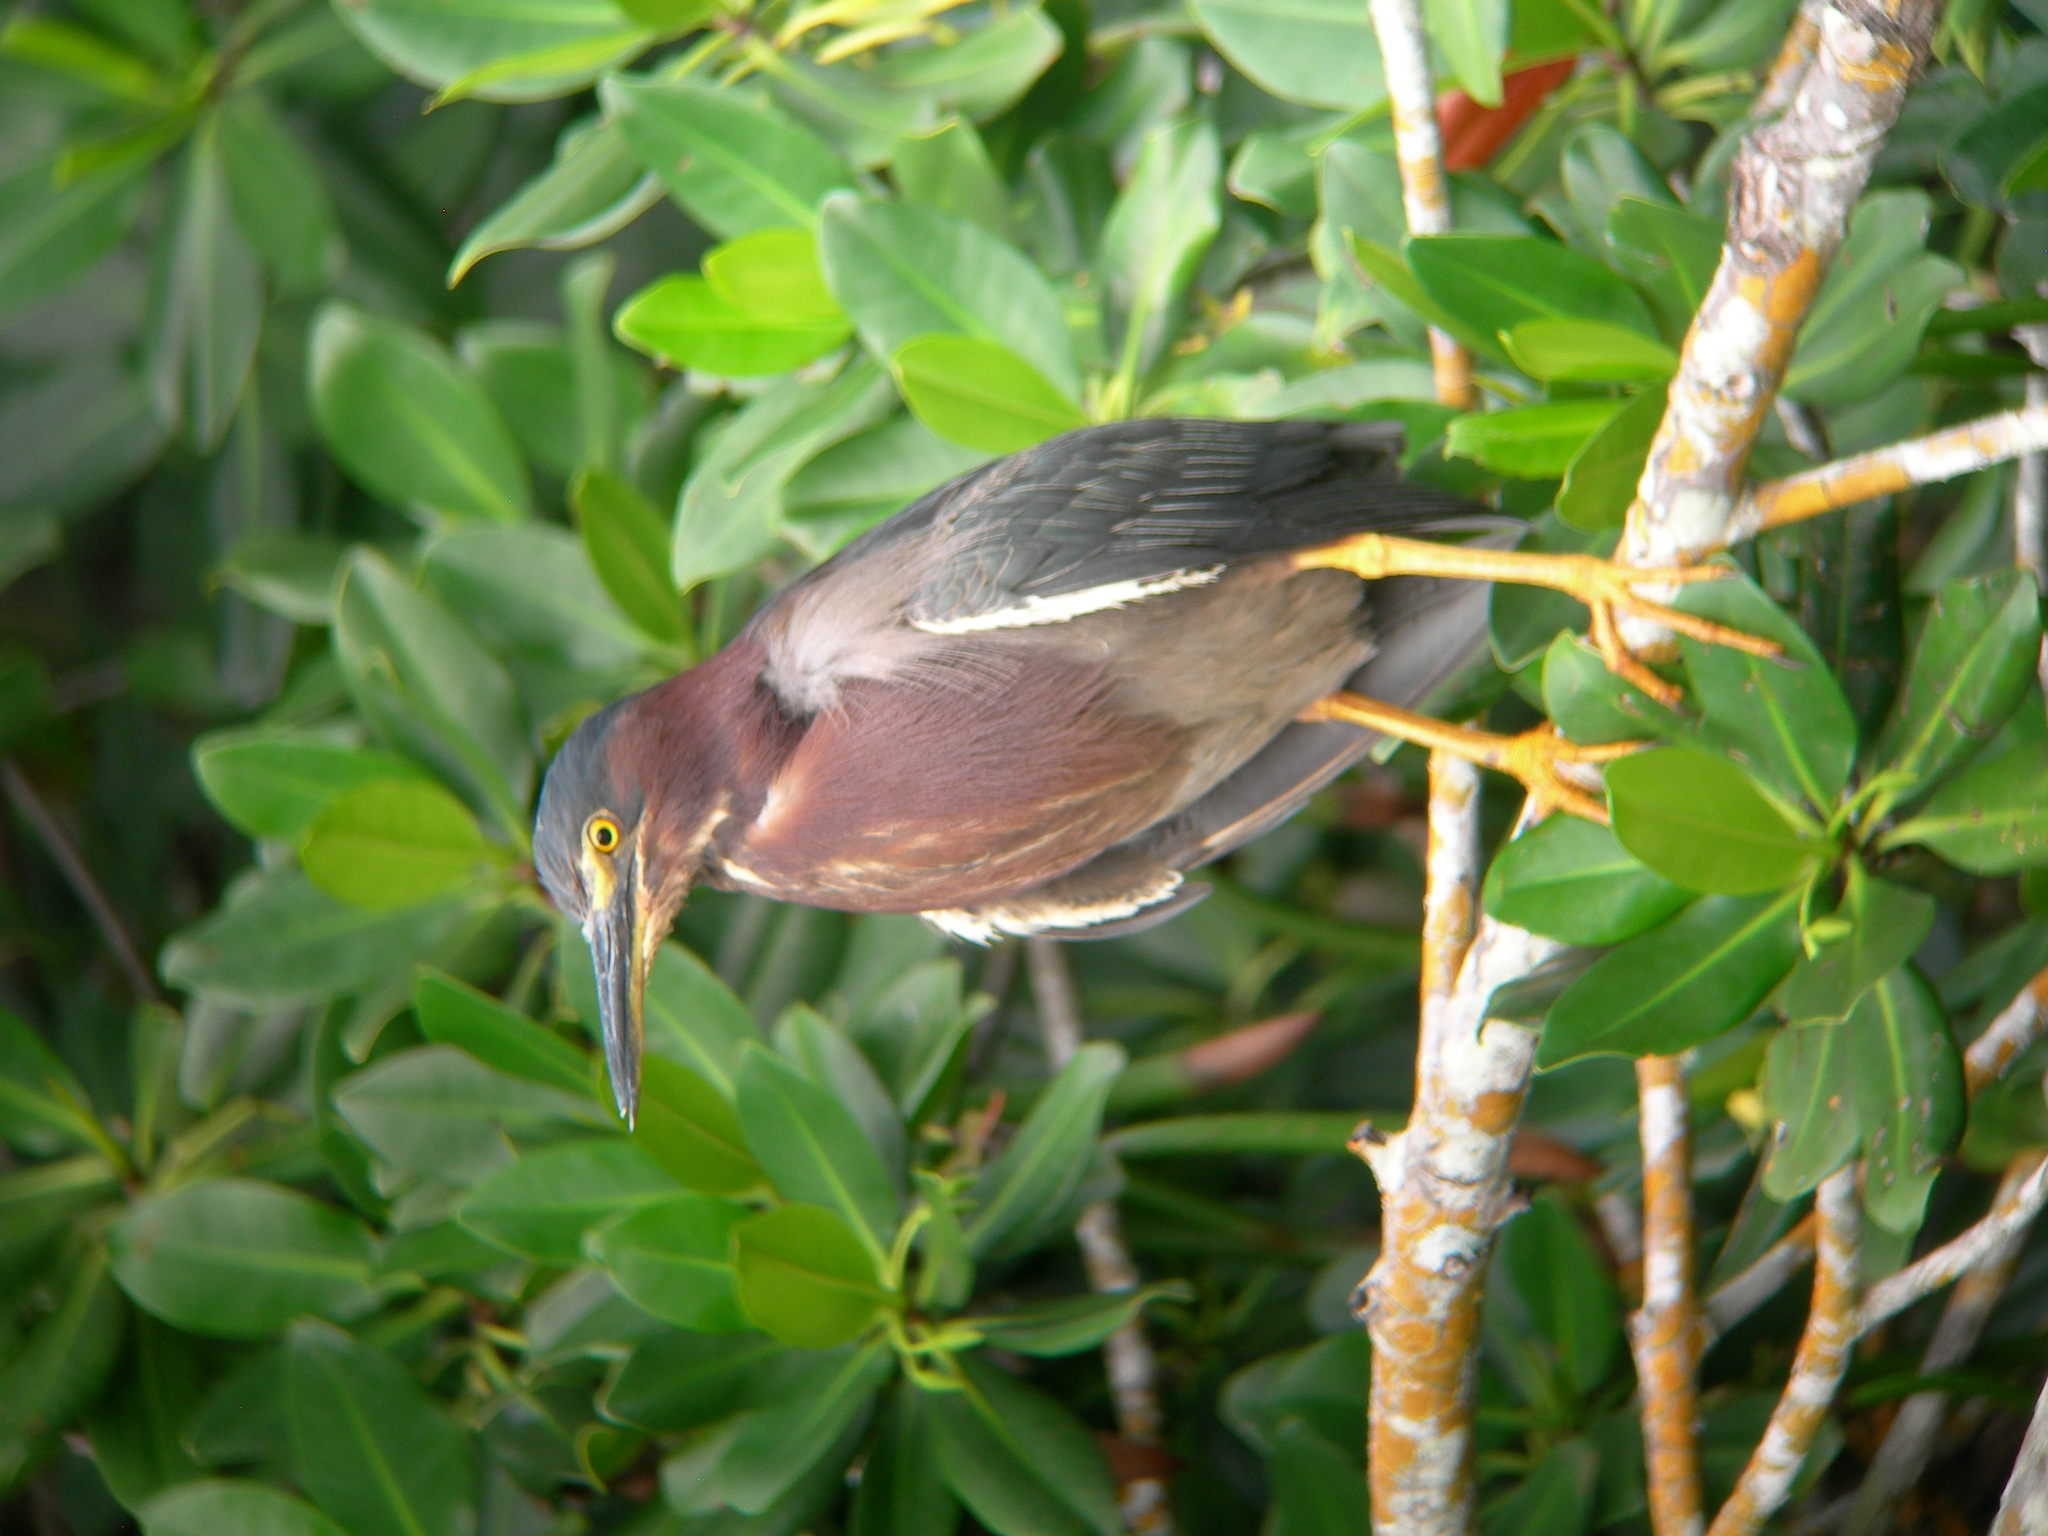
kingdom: Animalia
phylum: Chordata
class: Aves
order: Pelecaniformes
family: Ardeidae
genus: Butorides
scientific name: Butorides virescens
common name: Green heron
